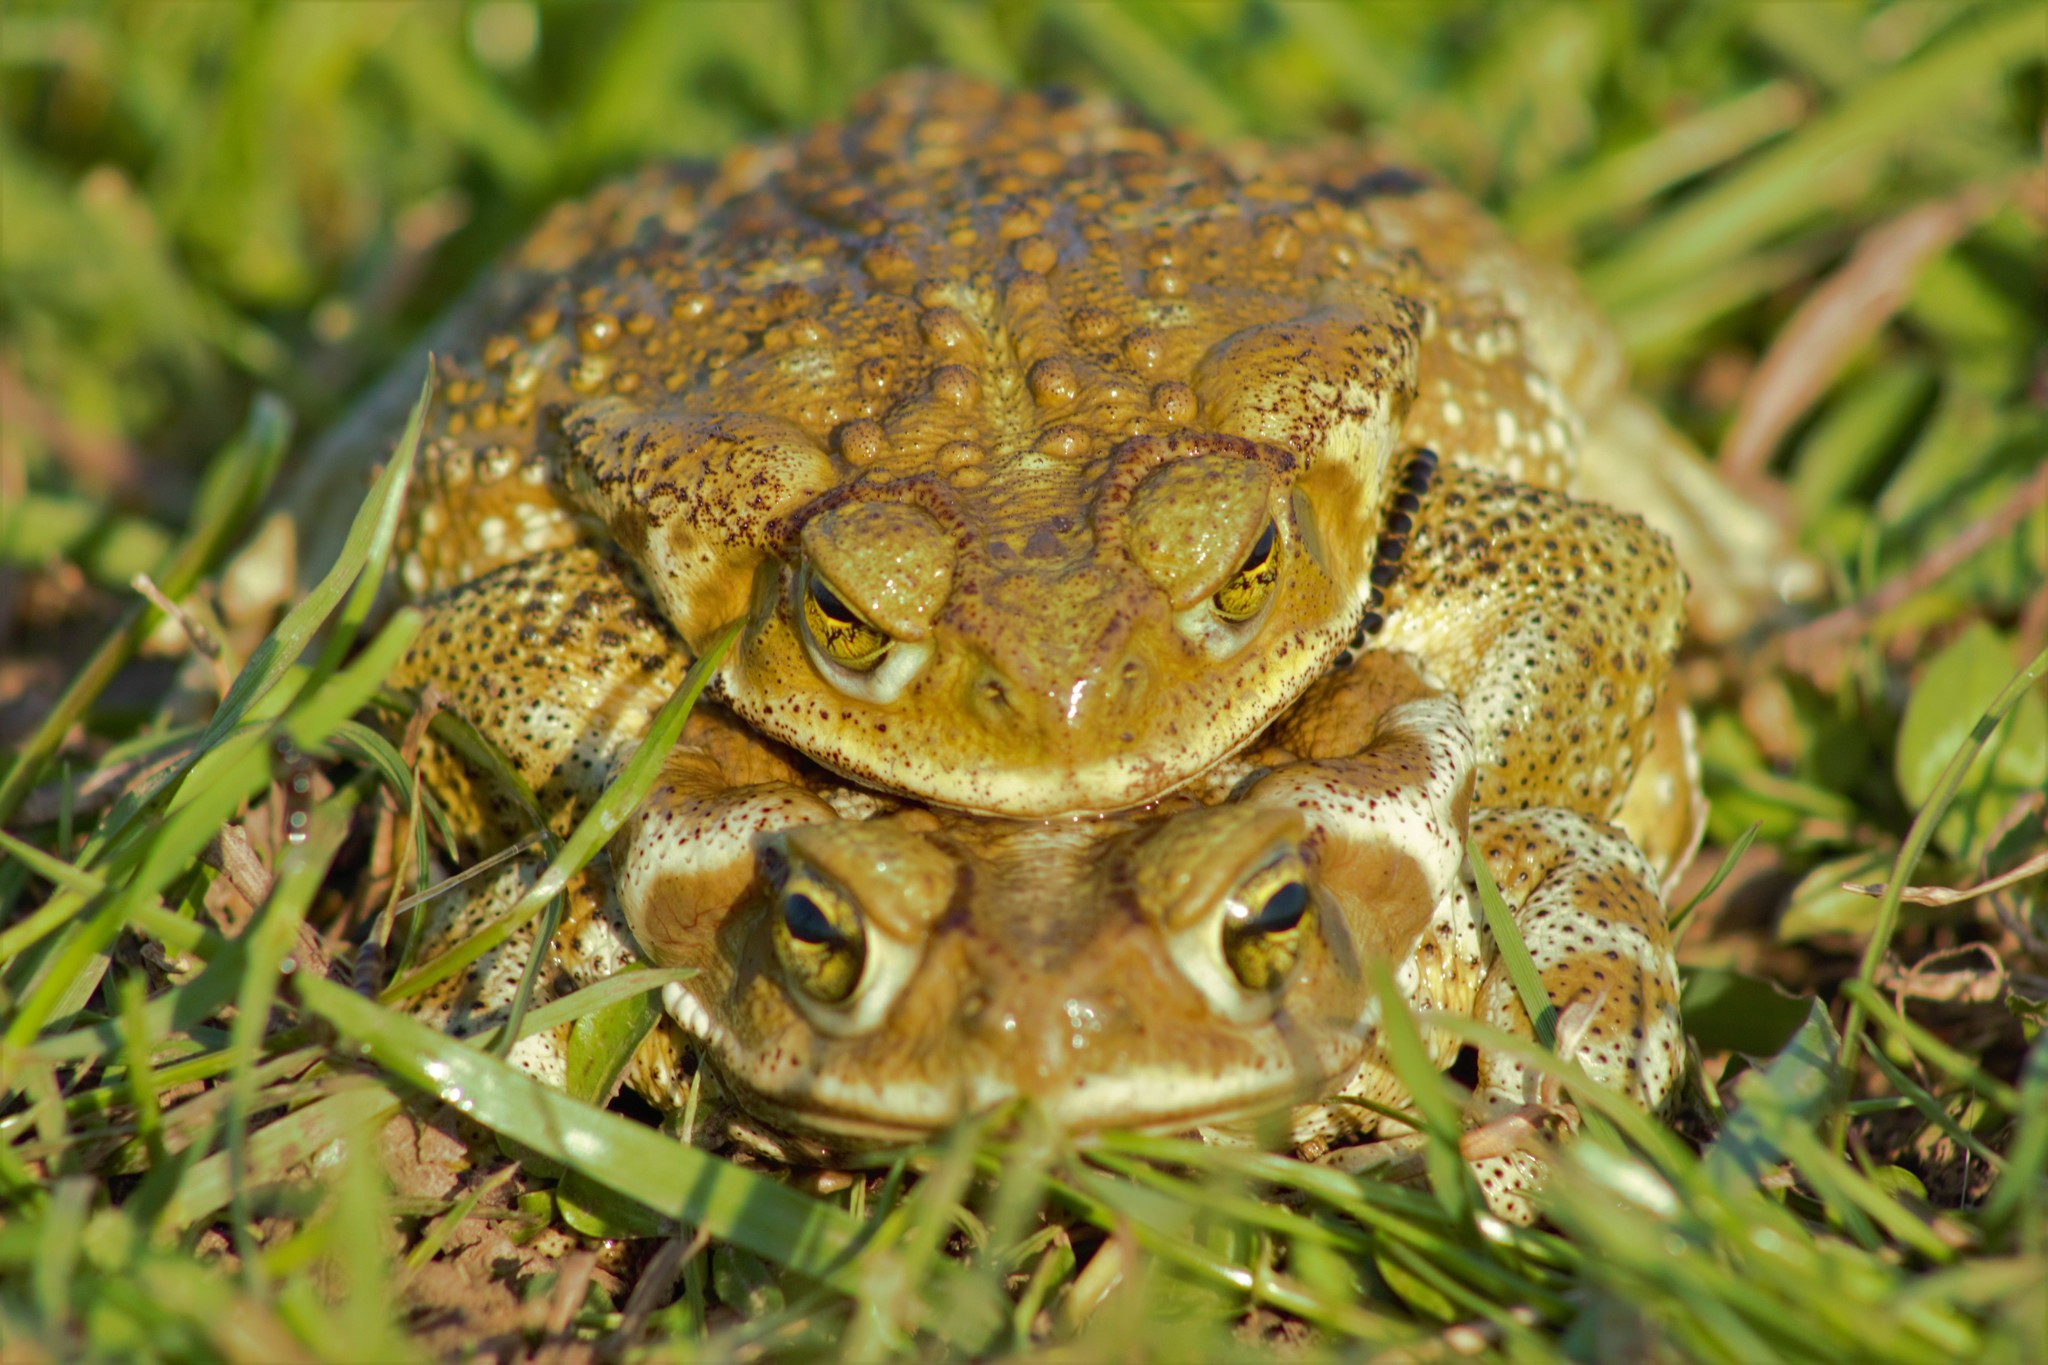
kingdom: Animalia
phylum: Chordata
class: Amphibia
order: Anura
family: Bufonidae
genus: Rhinella
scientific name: Rhinella arenarum
